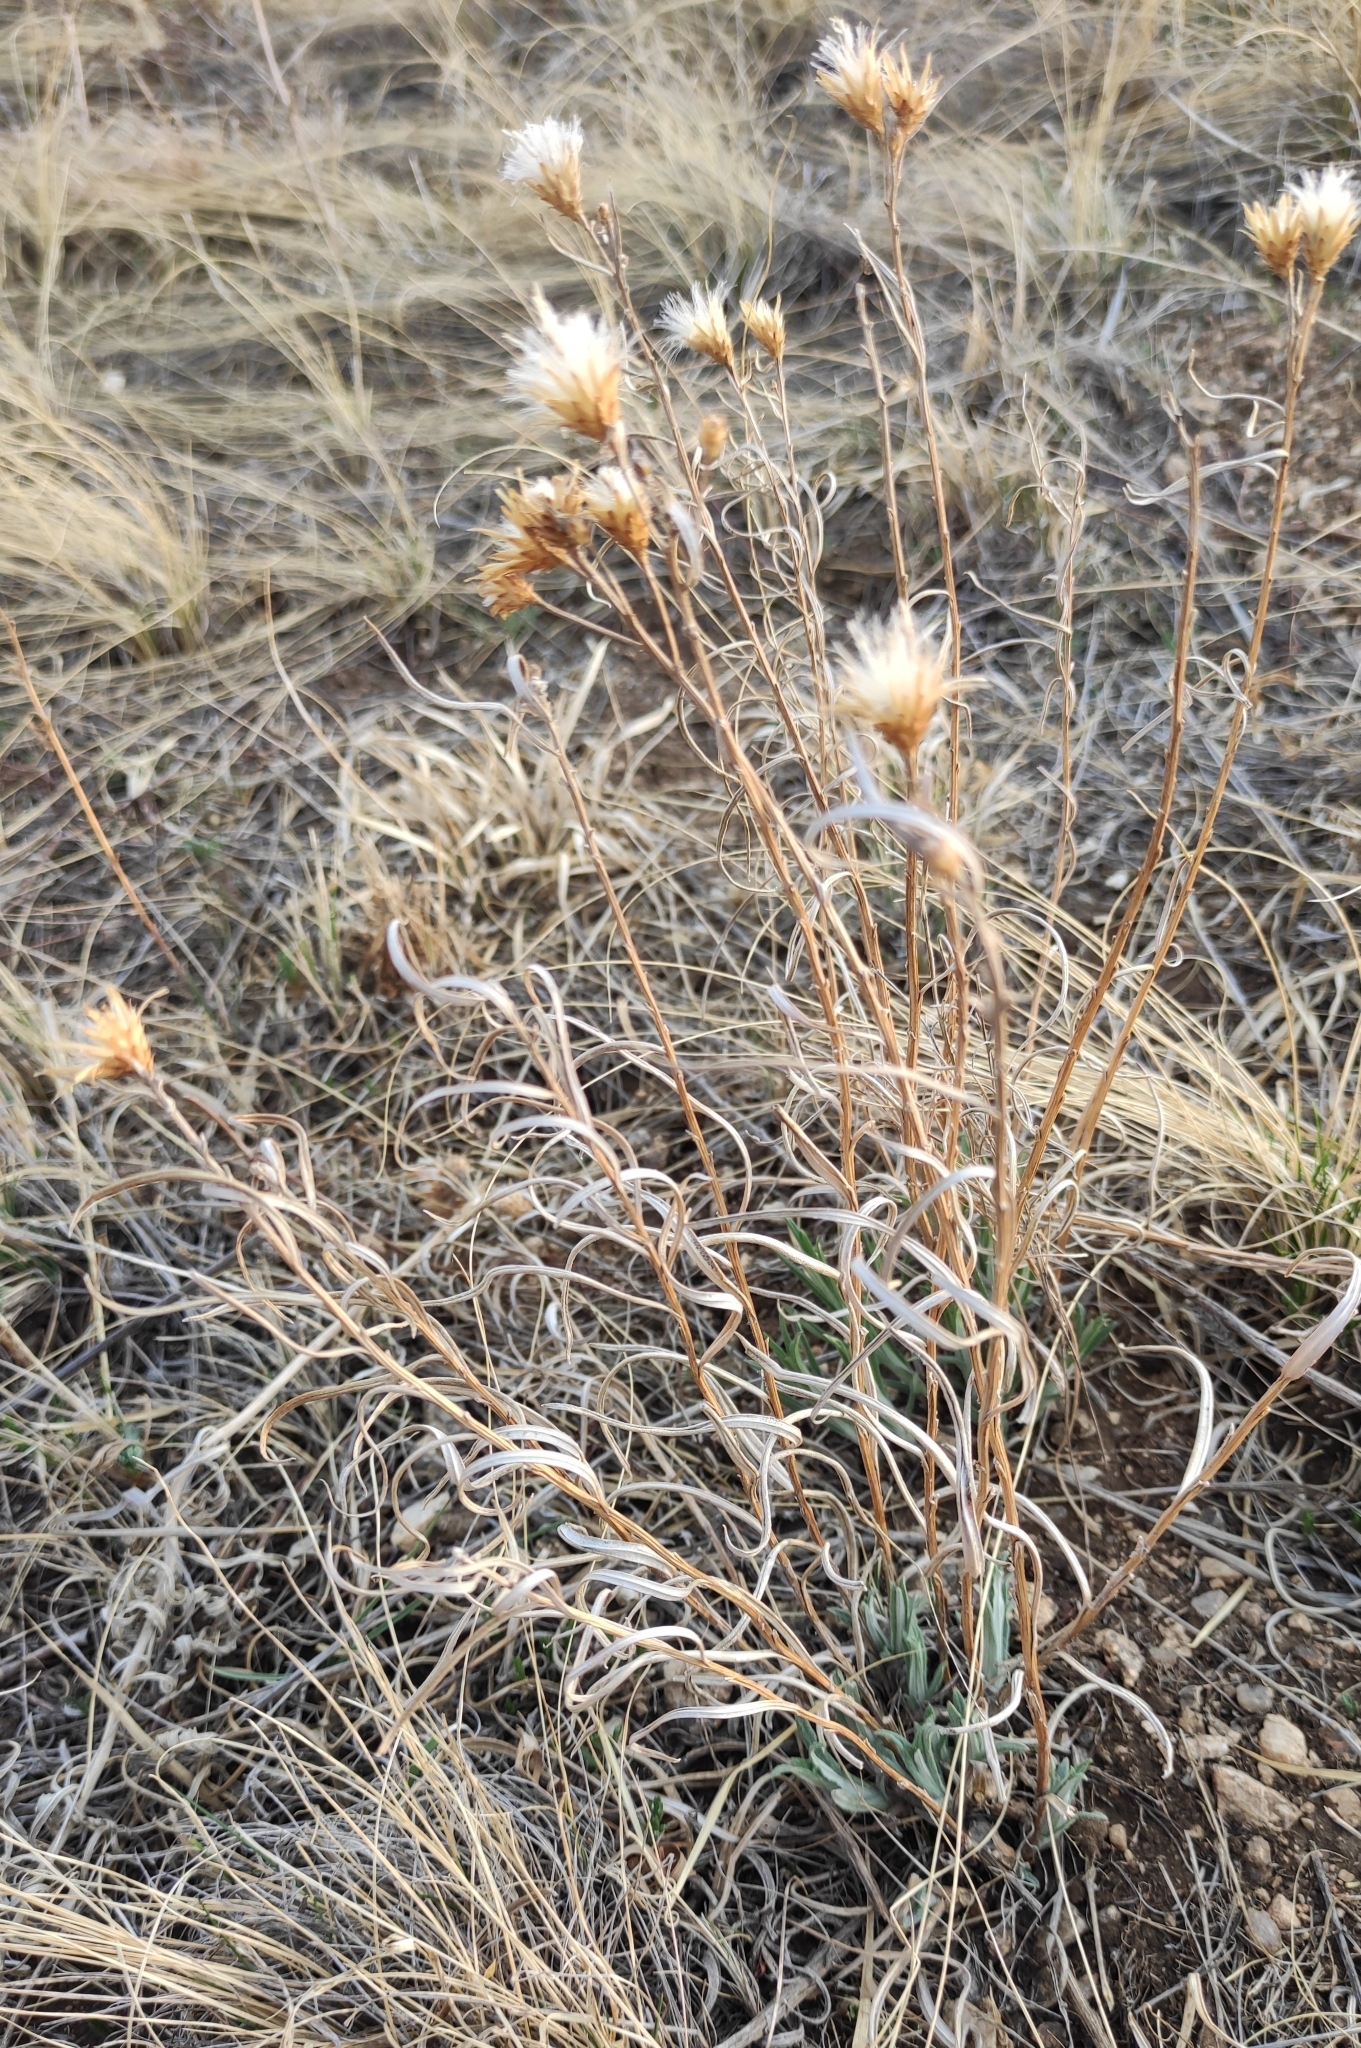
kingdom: Plantae
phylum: Tracheophyta
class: Magnoliopsida
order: Asterales
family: Asteraceae
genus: Saussurea
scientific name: Saussurea salicifolia
